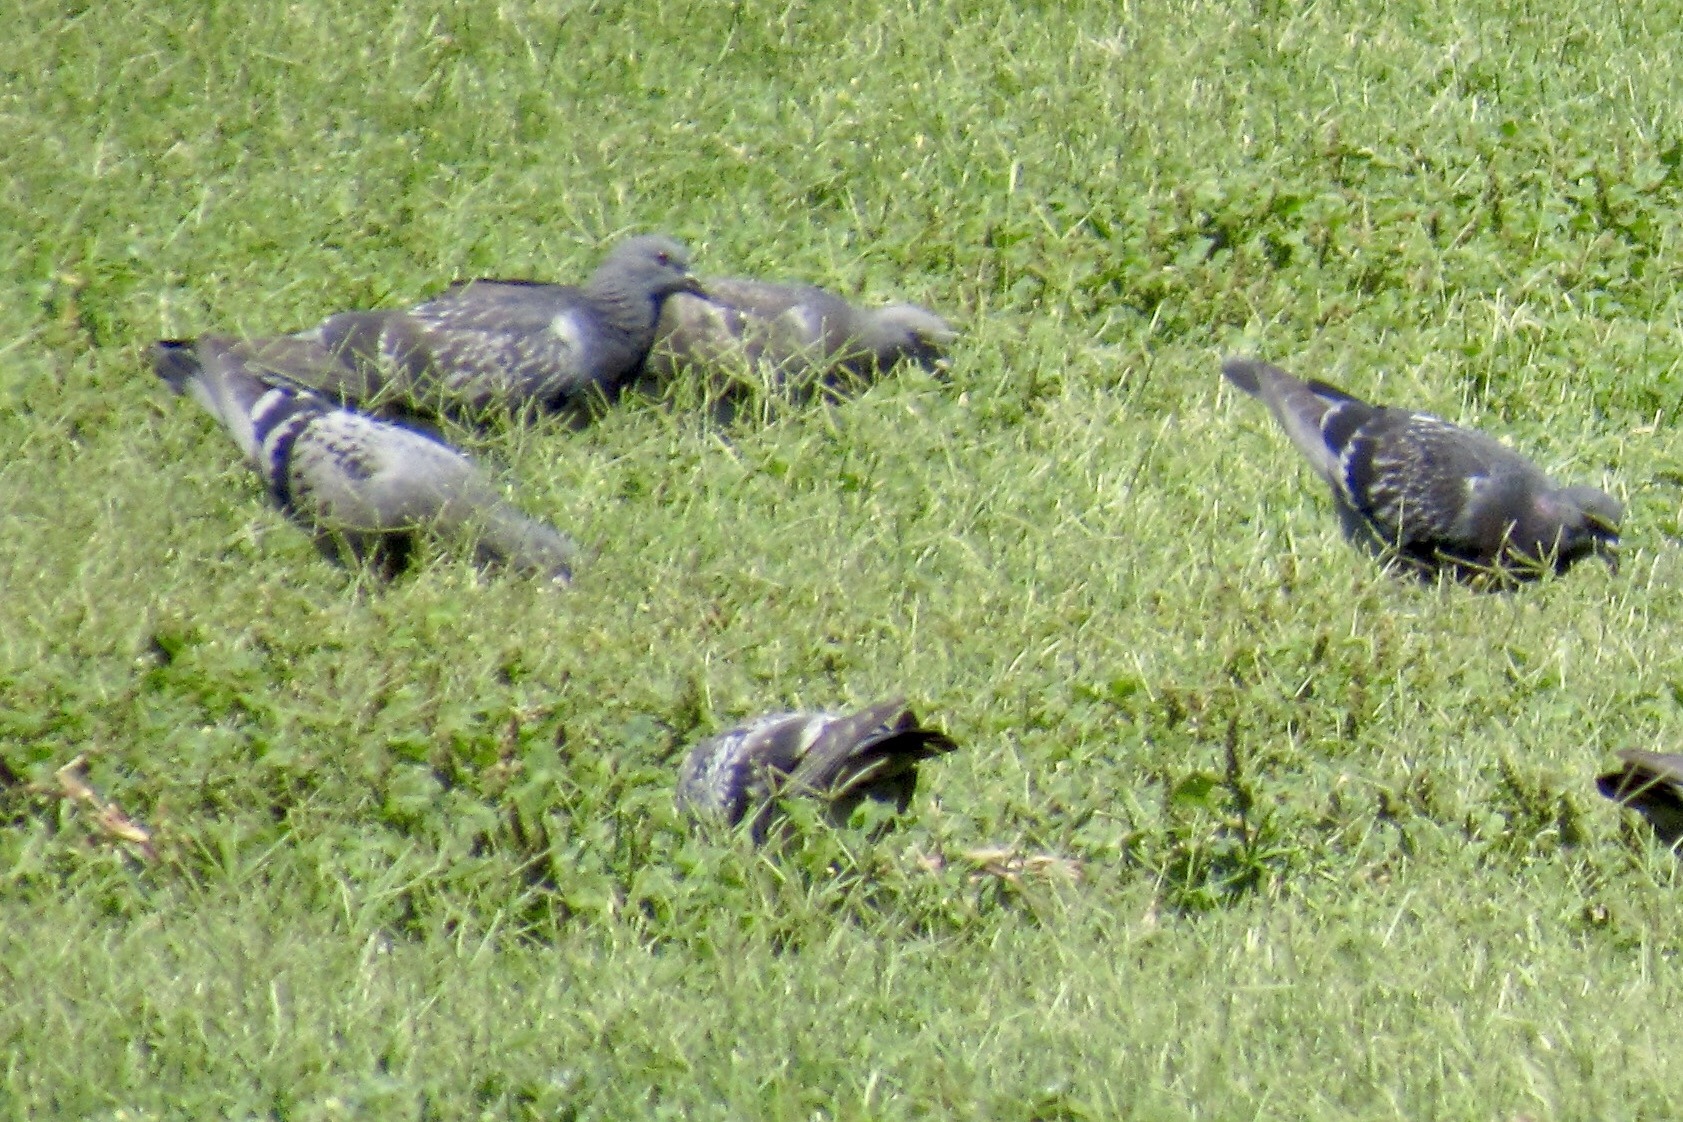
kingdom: Animalia
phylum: Chordata
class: Aves
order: Columbiformes
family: Columbidae
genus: Columba
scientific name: Columba livia
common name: Rock pigeon
